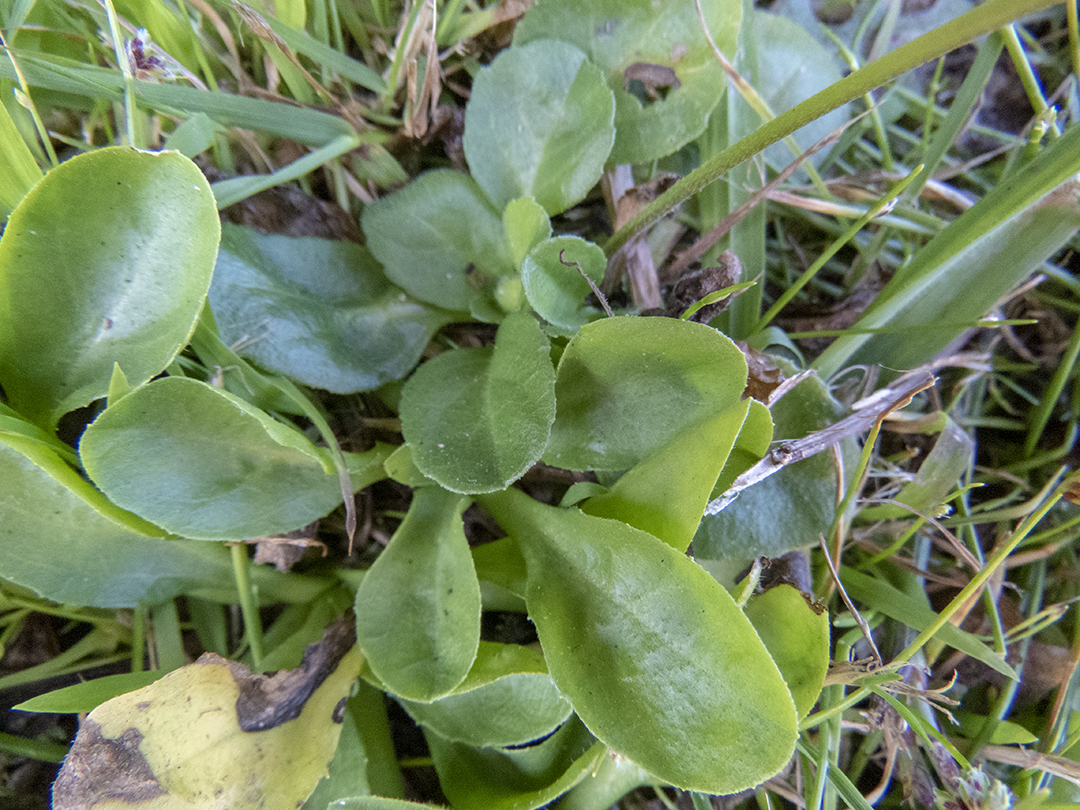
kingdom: Plantae
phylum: Tracheophyta
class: Magnoliopsida
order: Asterales
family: Asteraceae
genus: Bellis
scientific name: Bellis perennis
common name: Lawndaisy
